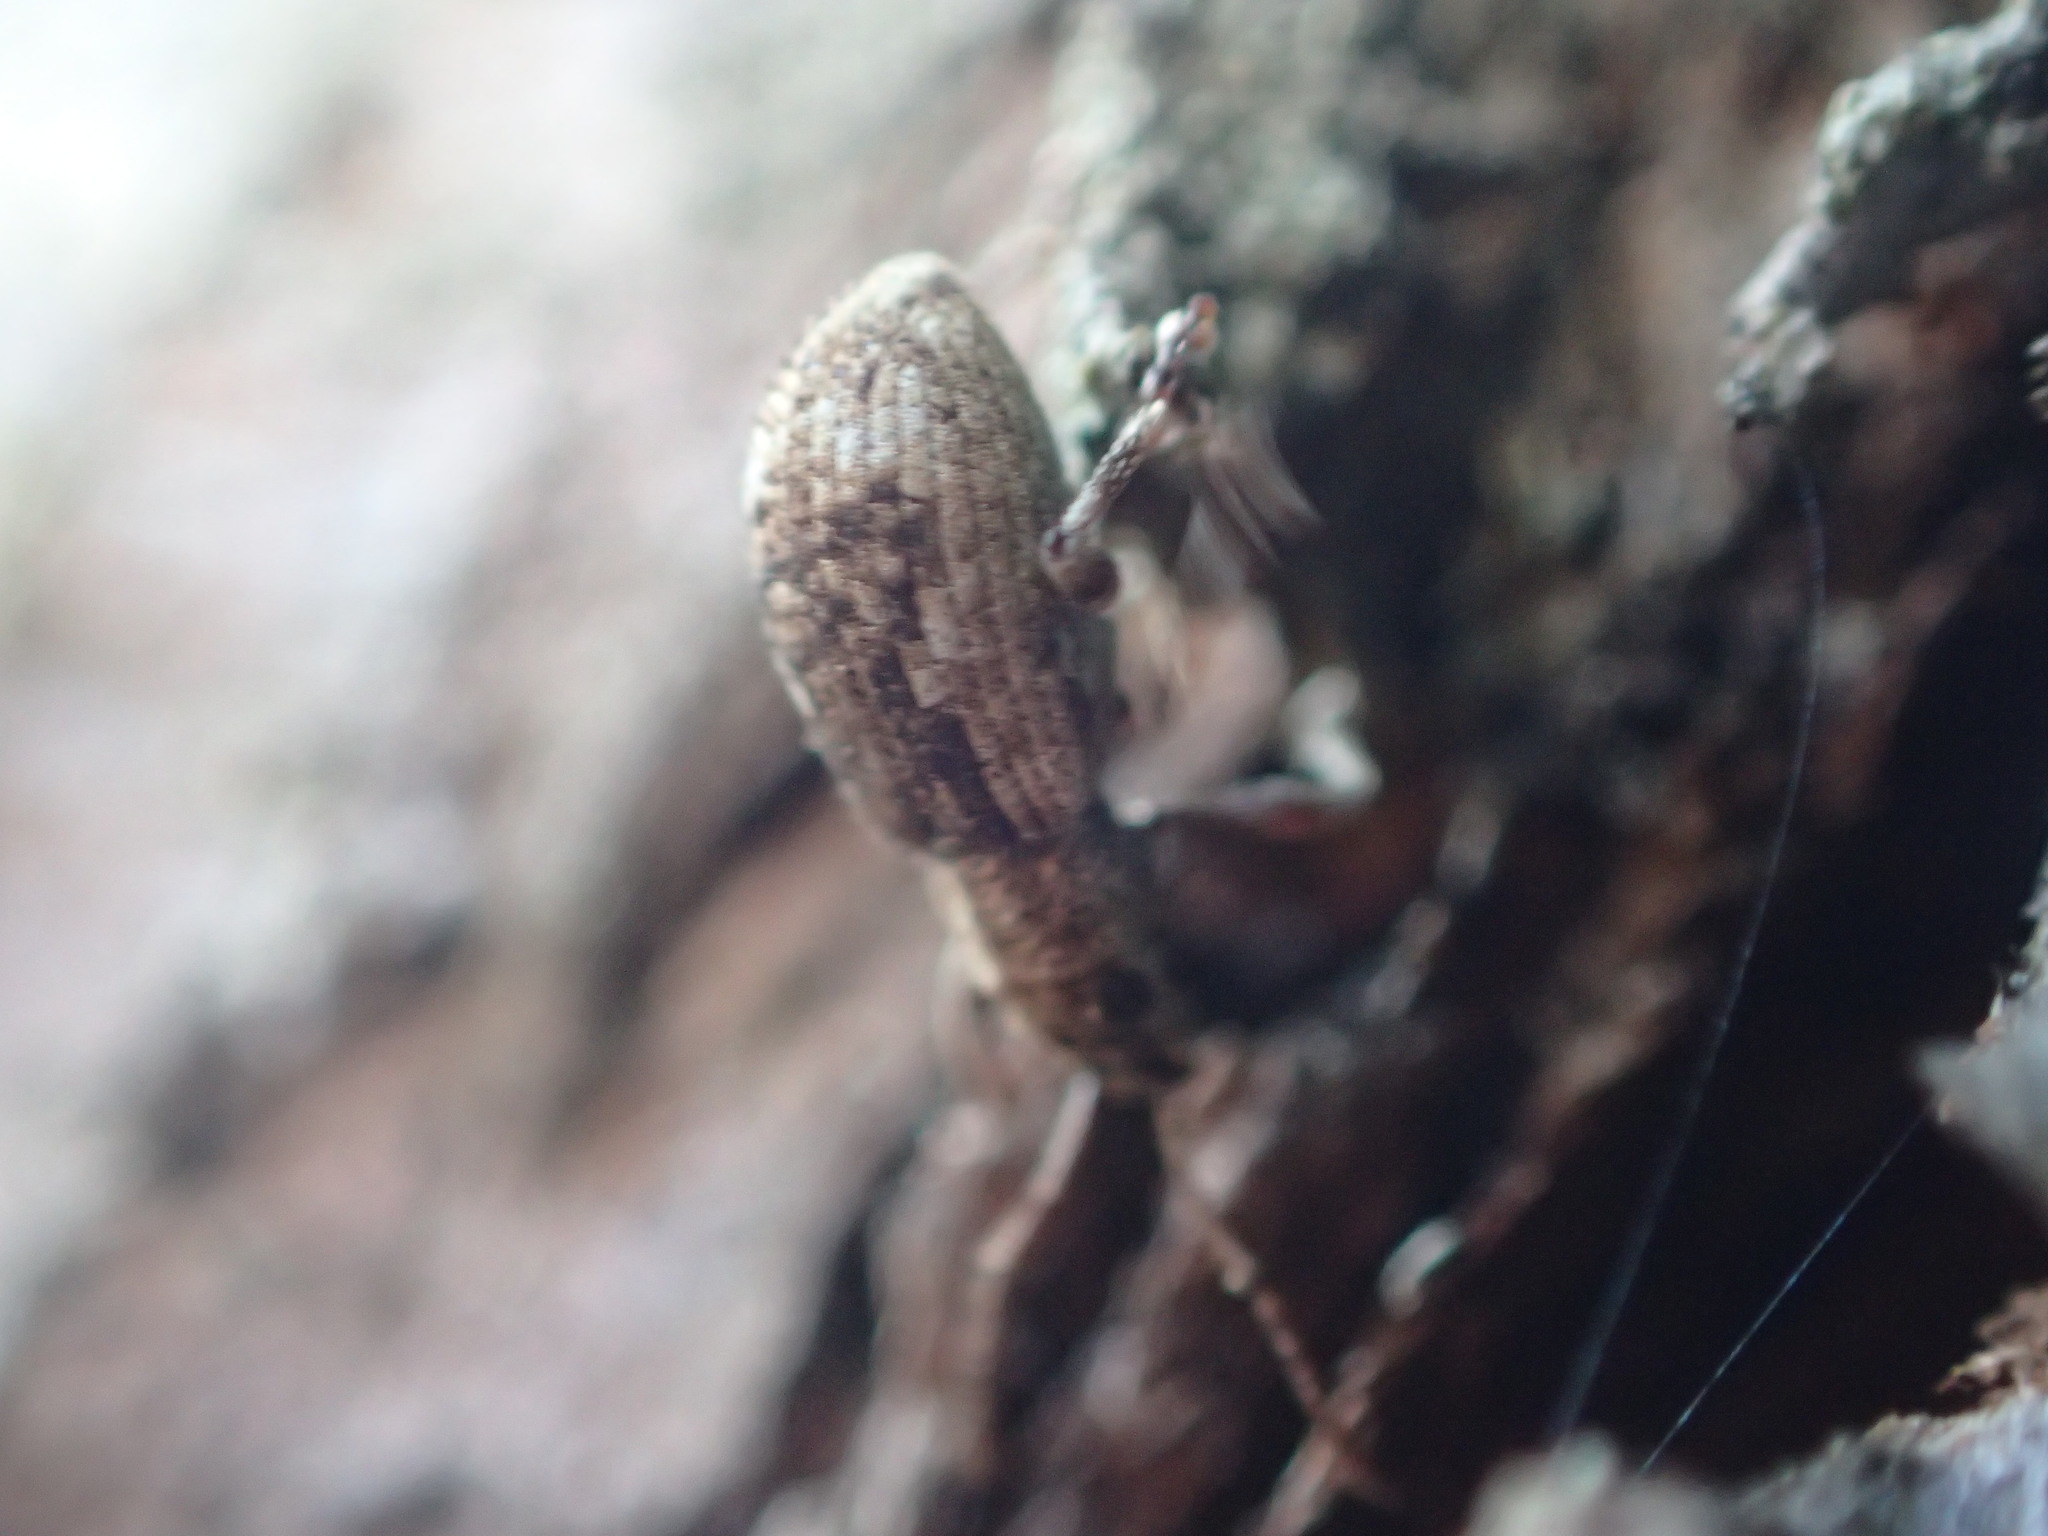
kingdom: Animalia
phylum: Arthropoda
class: Insecta
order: Coleoptera
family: Curculionidae
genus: Pseudoedophrys
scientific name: Pseudoedophrys hilleri
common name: Weevil
